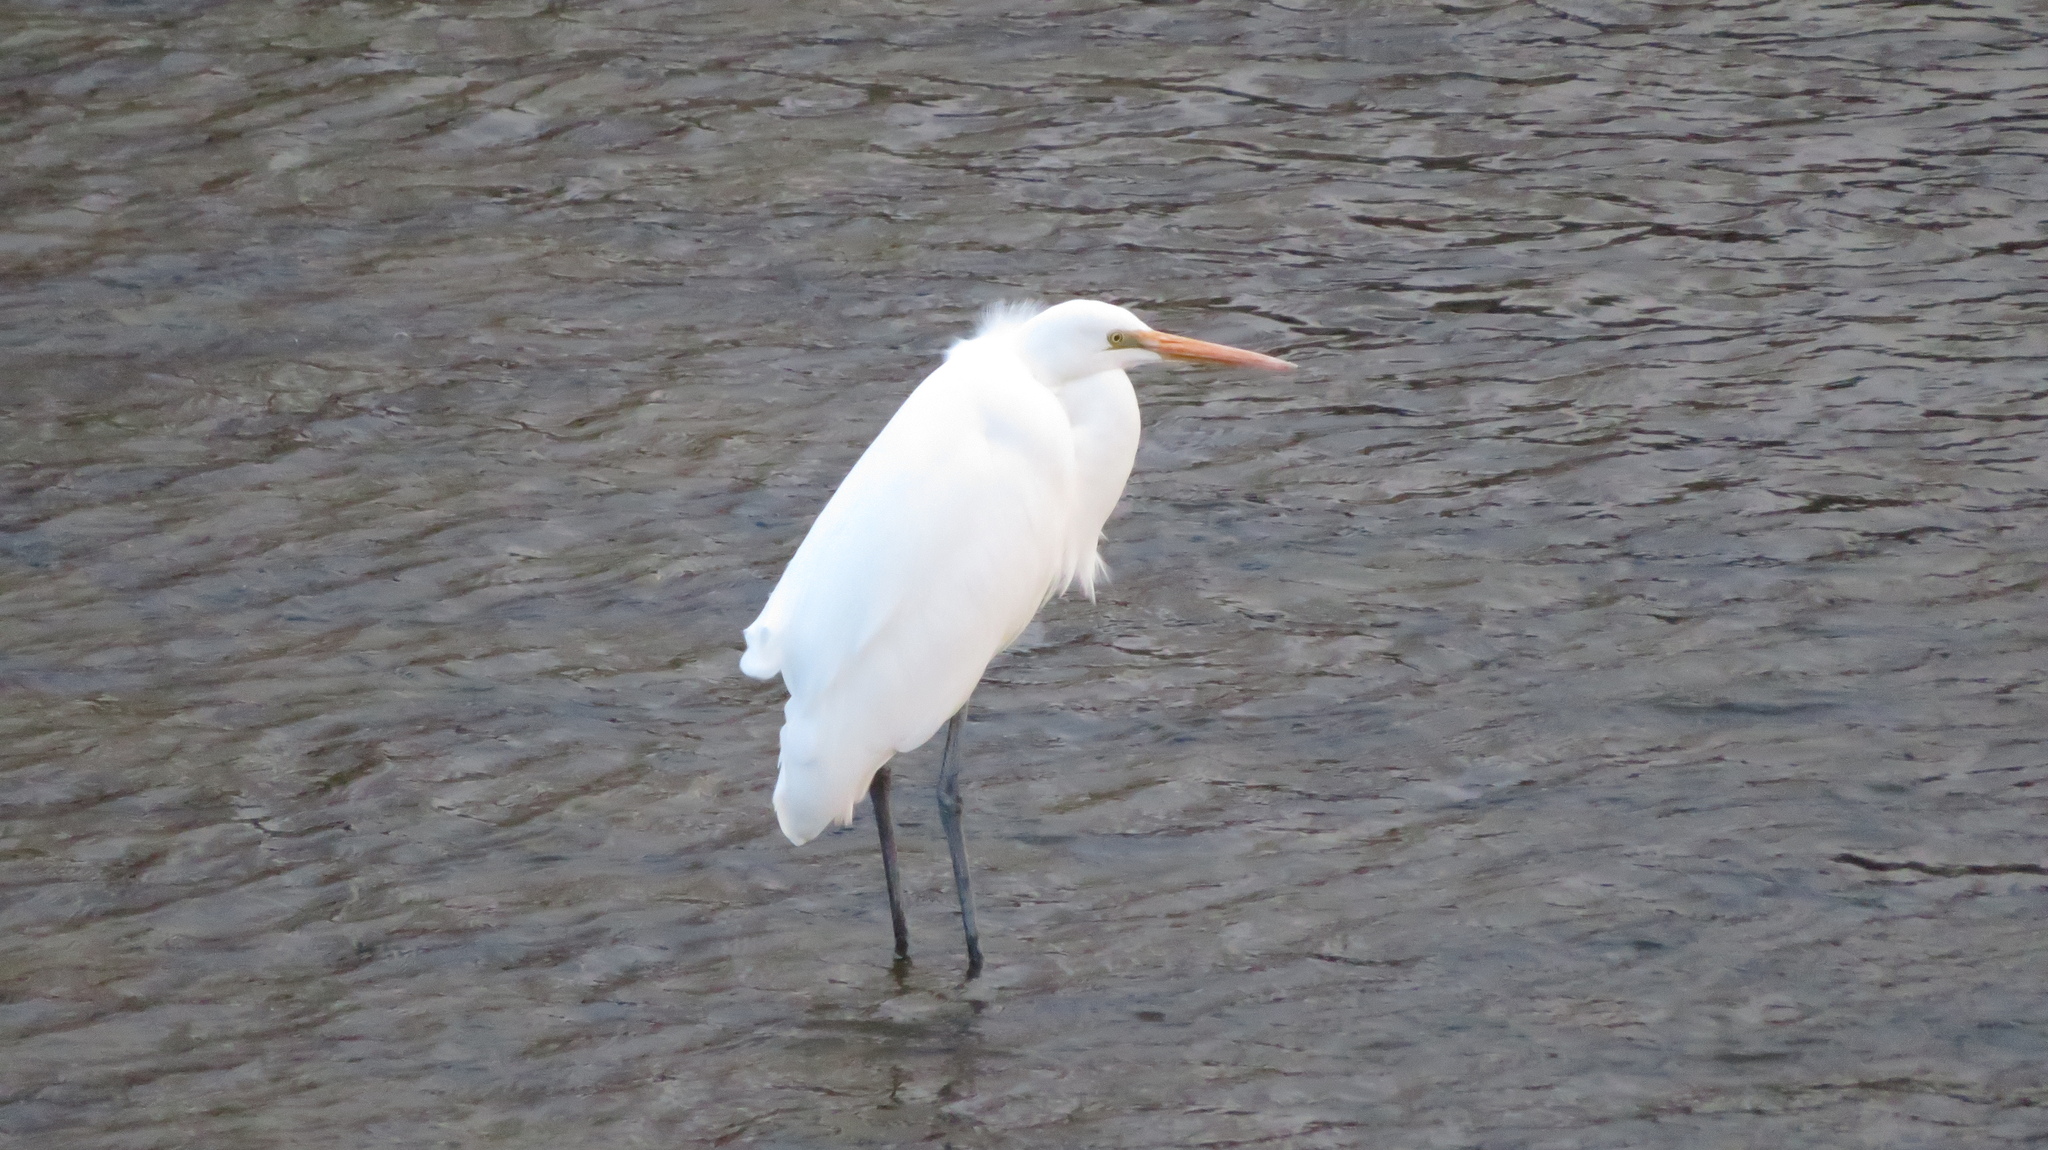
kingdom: Animalia
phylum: Chordata
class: Aves
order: Pelecaniformes
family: Ardeidae
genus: Ardea
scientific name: Ardea alba
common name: Great egret
